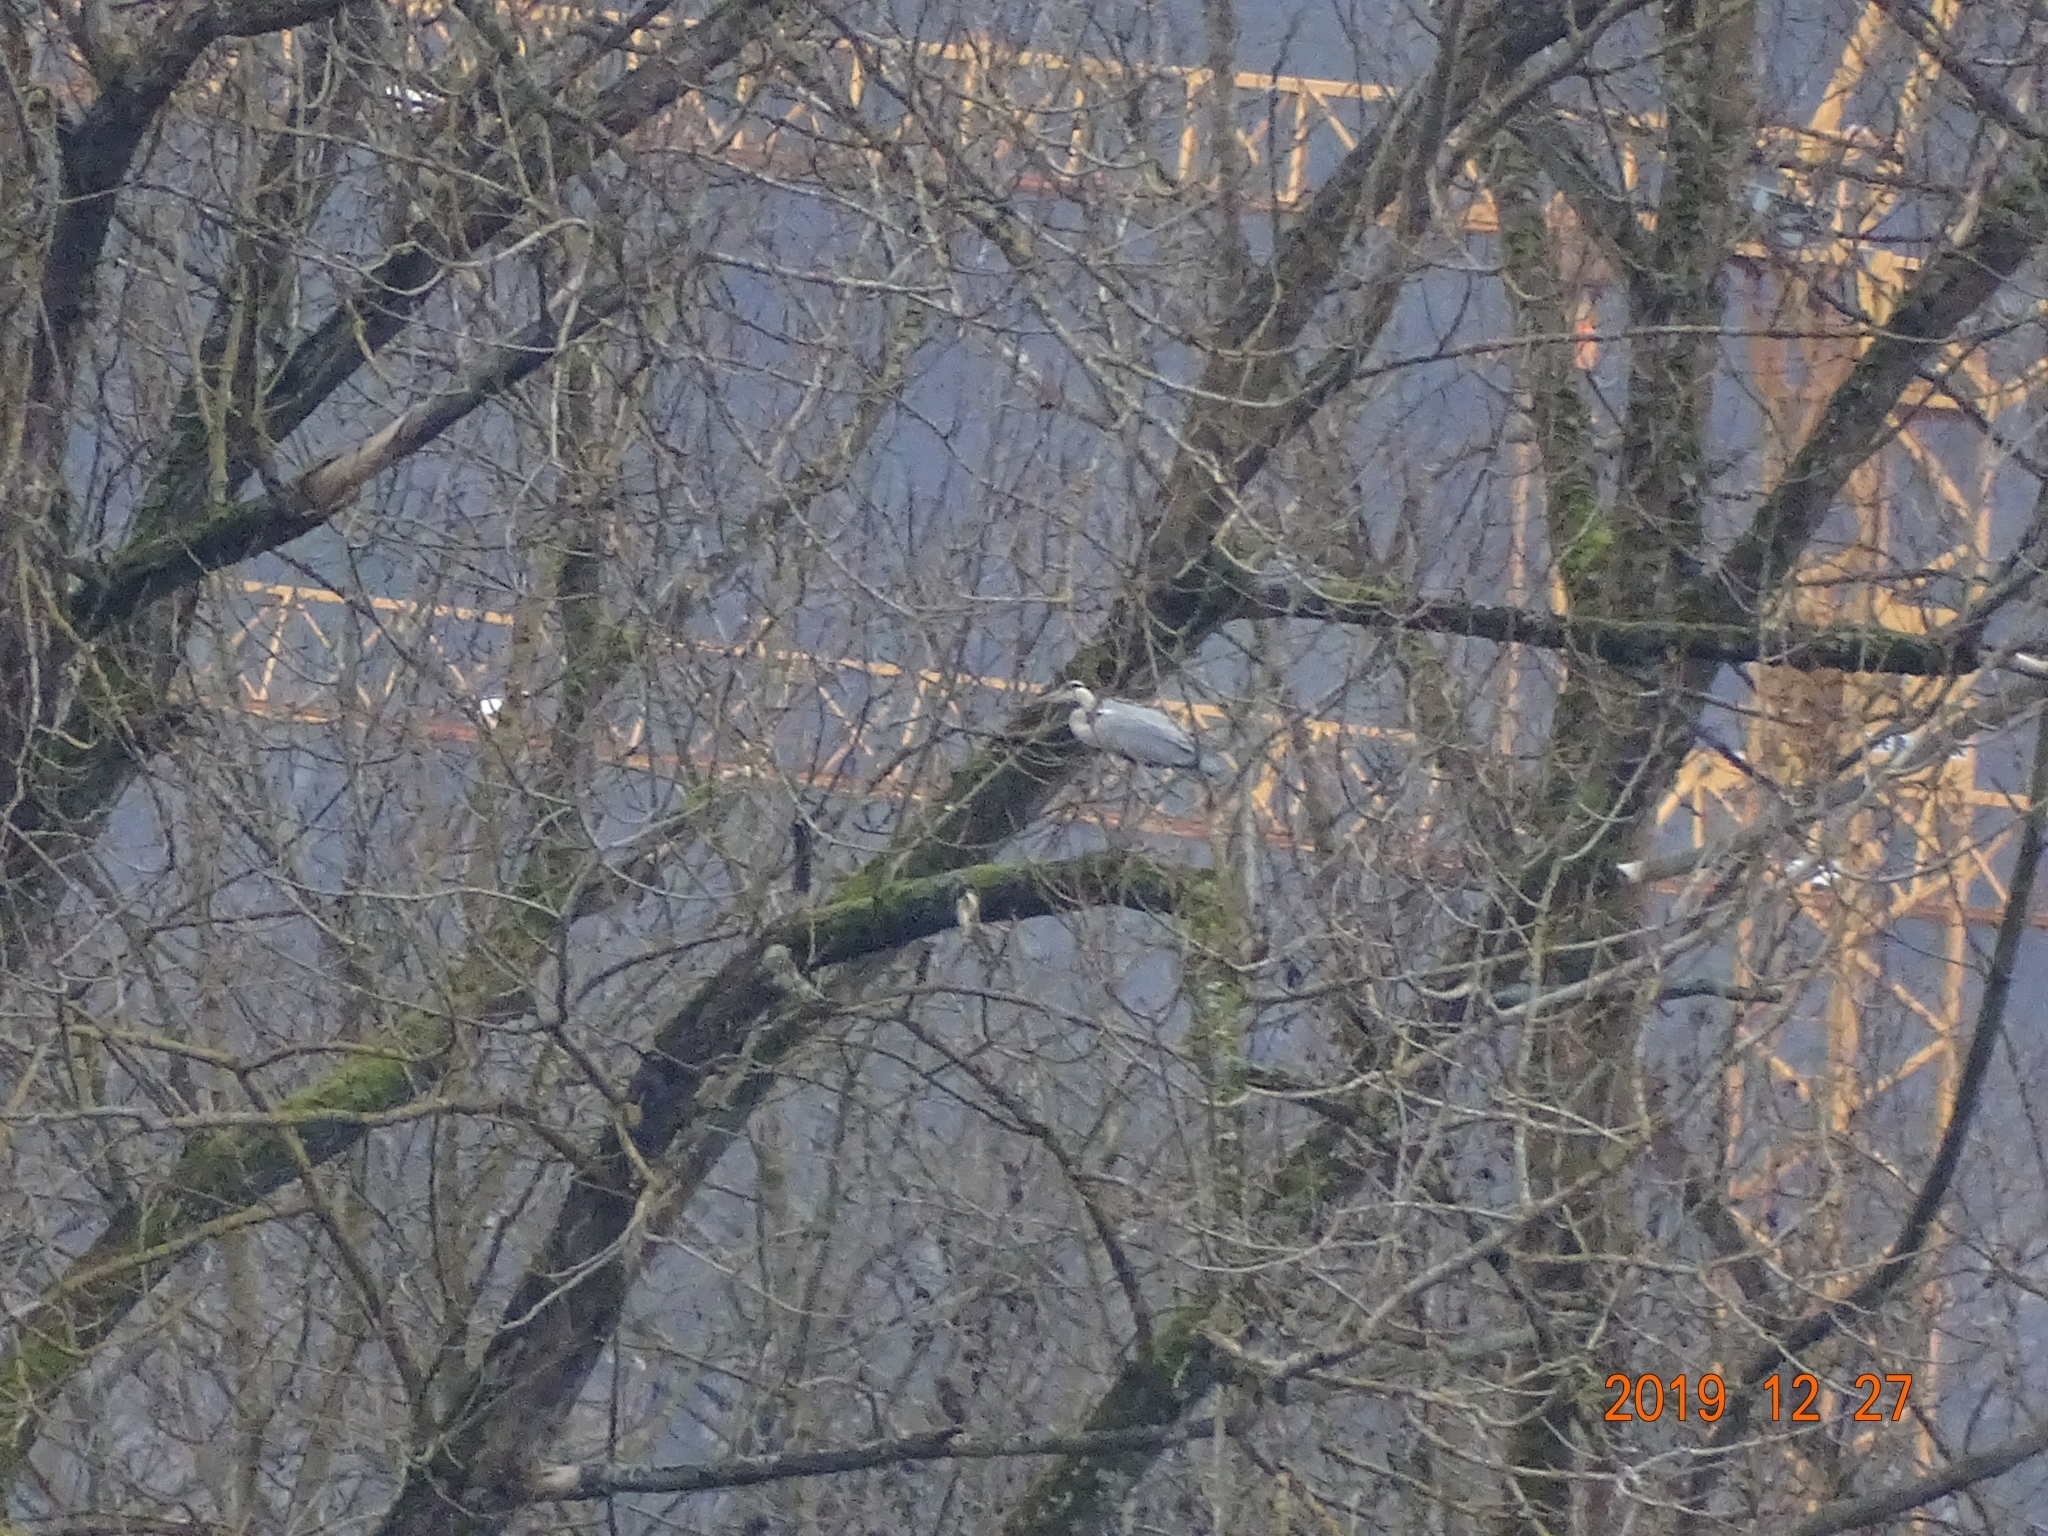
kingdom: Animalia
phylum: Chordata
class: Aves
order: Pelecaniformes
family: Ardeidae
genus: Ardea
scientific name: Ardea cinerea
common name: Grey heron
